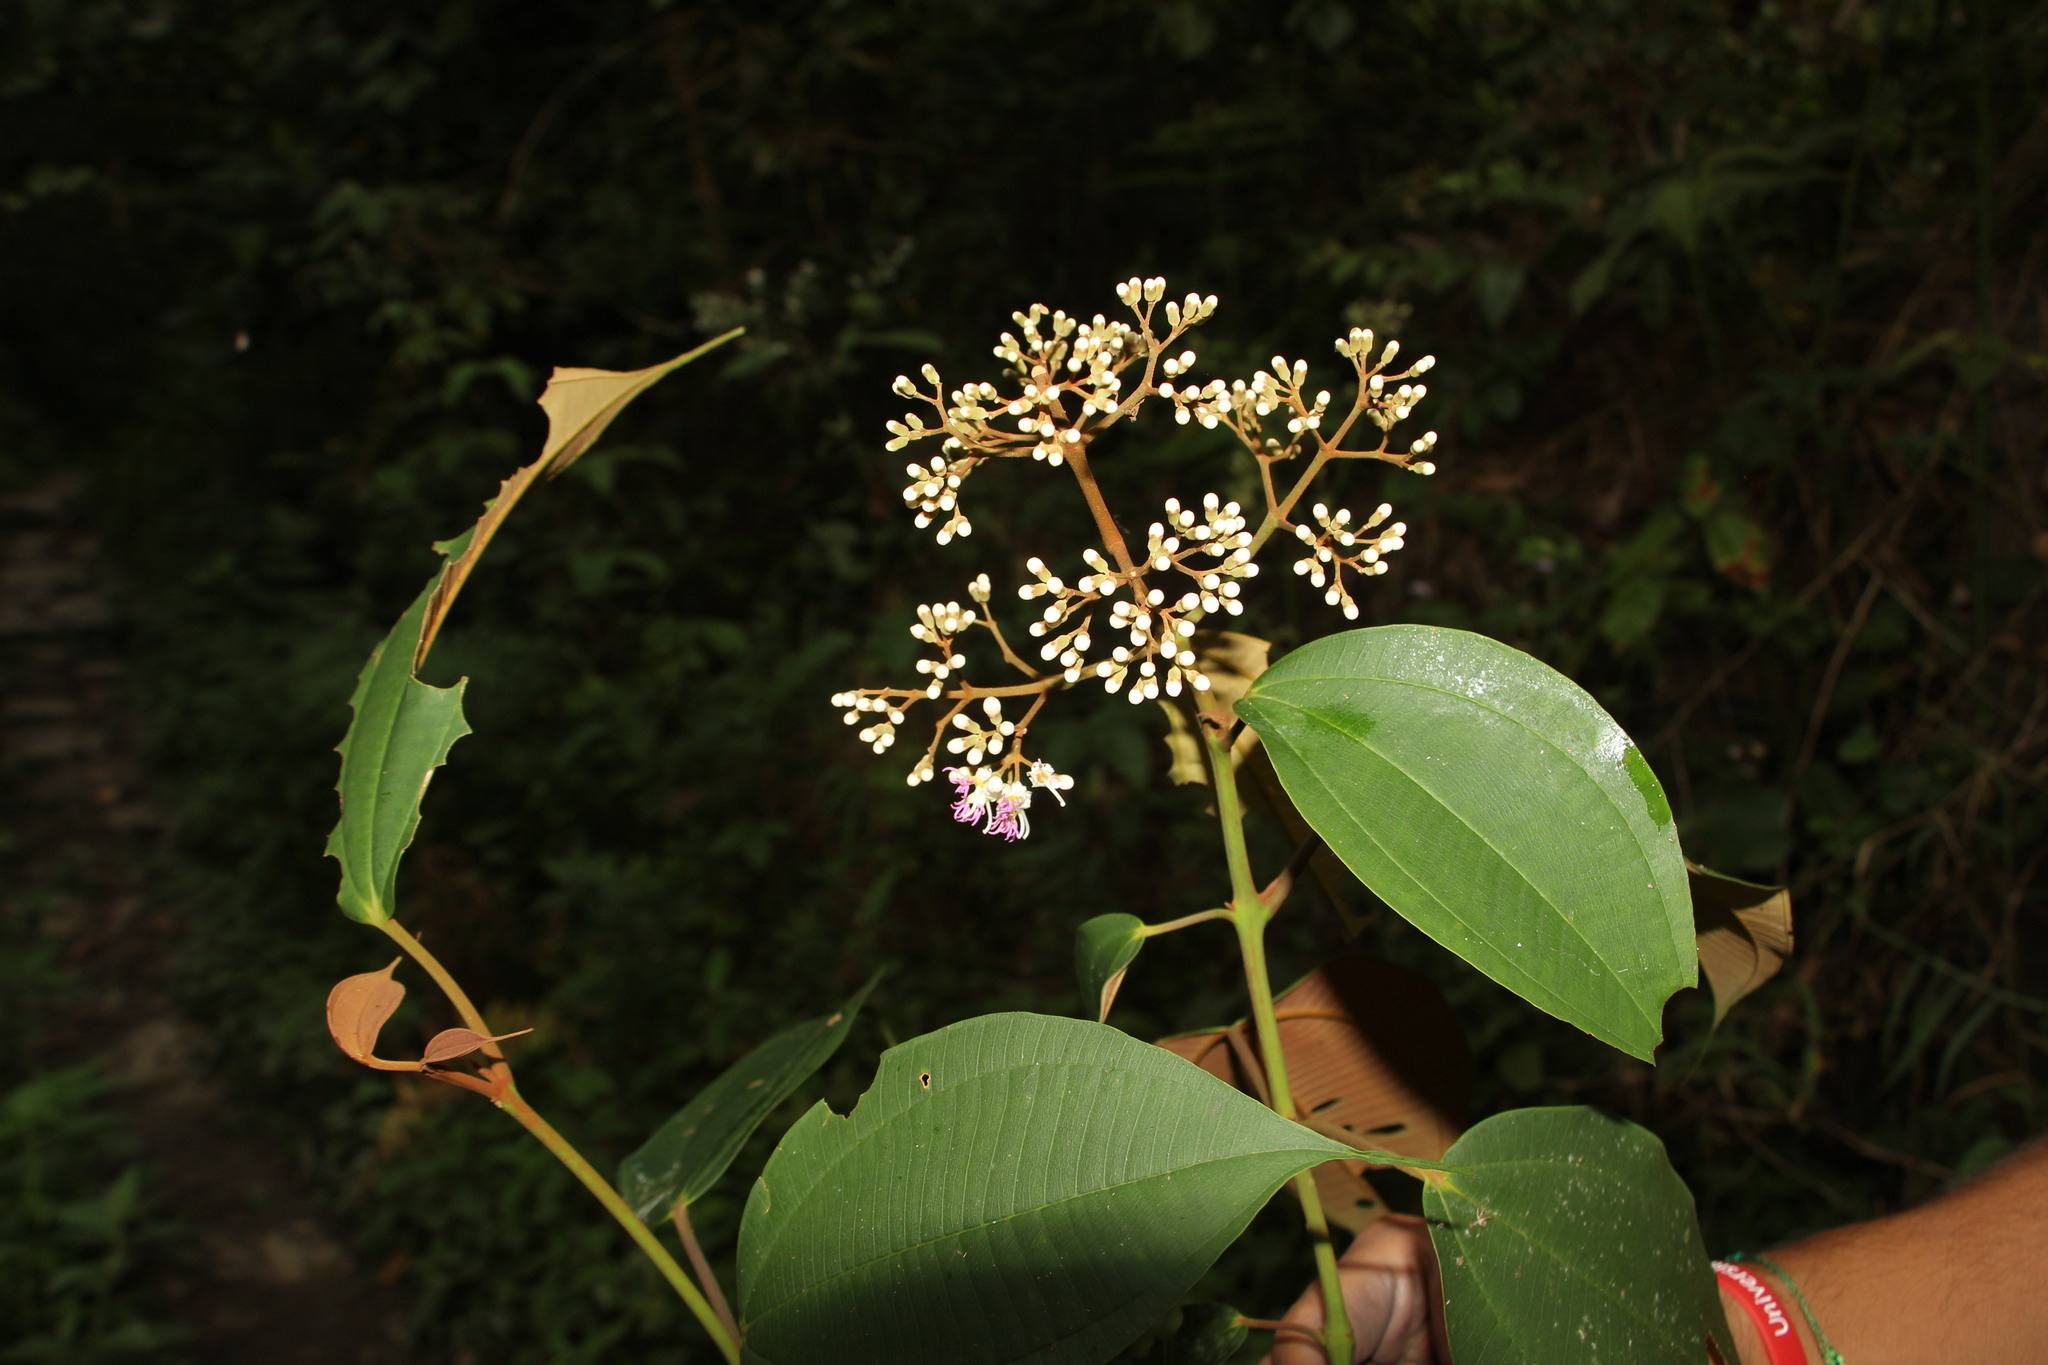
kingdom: Plantae
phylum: Tracheophyta
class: Magnoliopsida
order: Myrtales
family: Melastomataceae
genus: Miconia
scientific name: Miconia caudata
